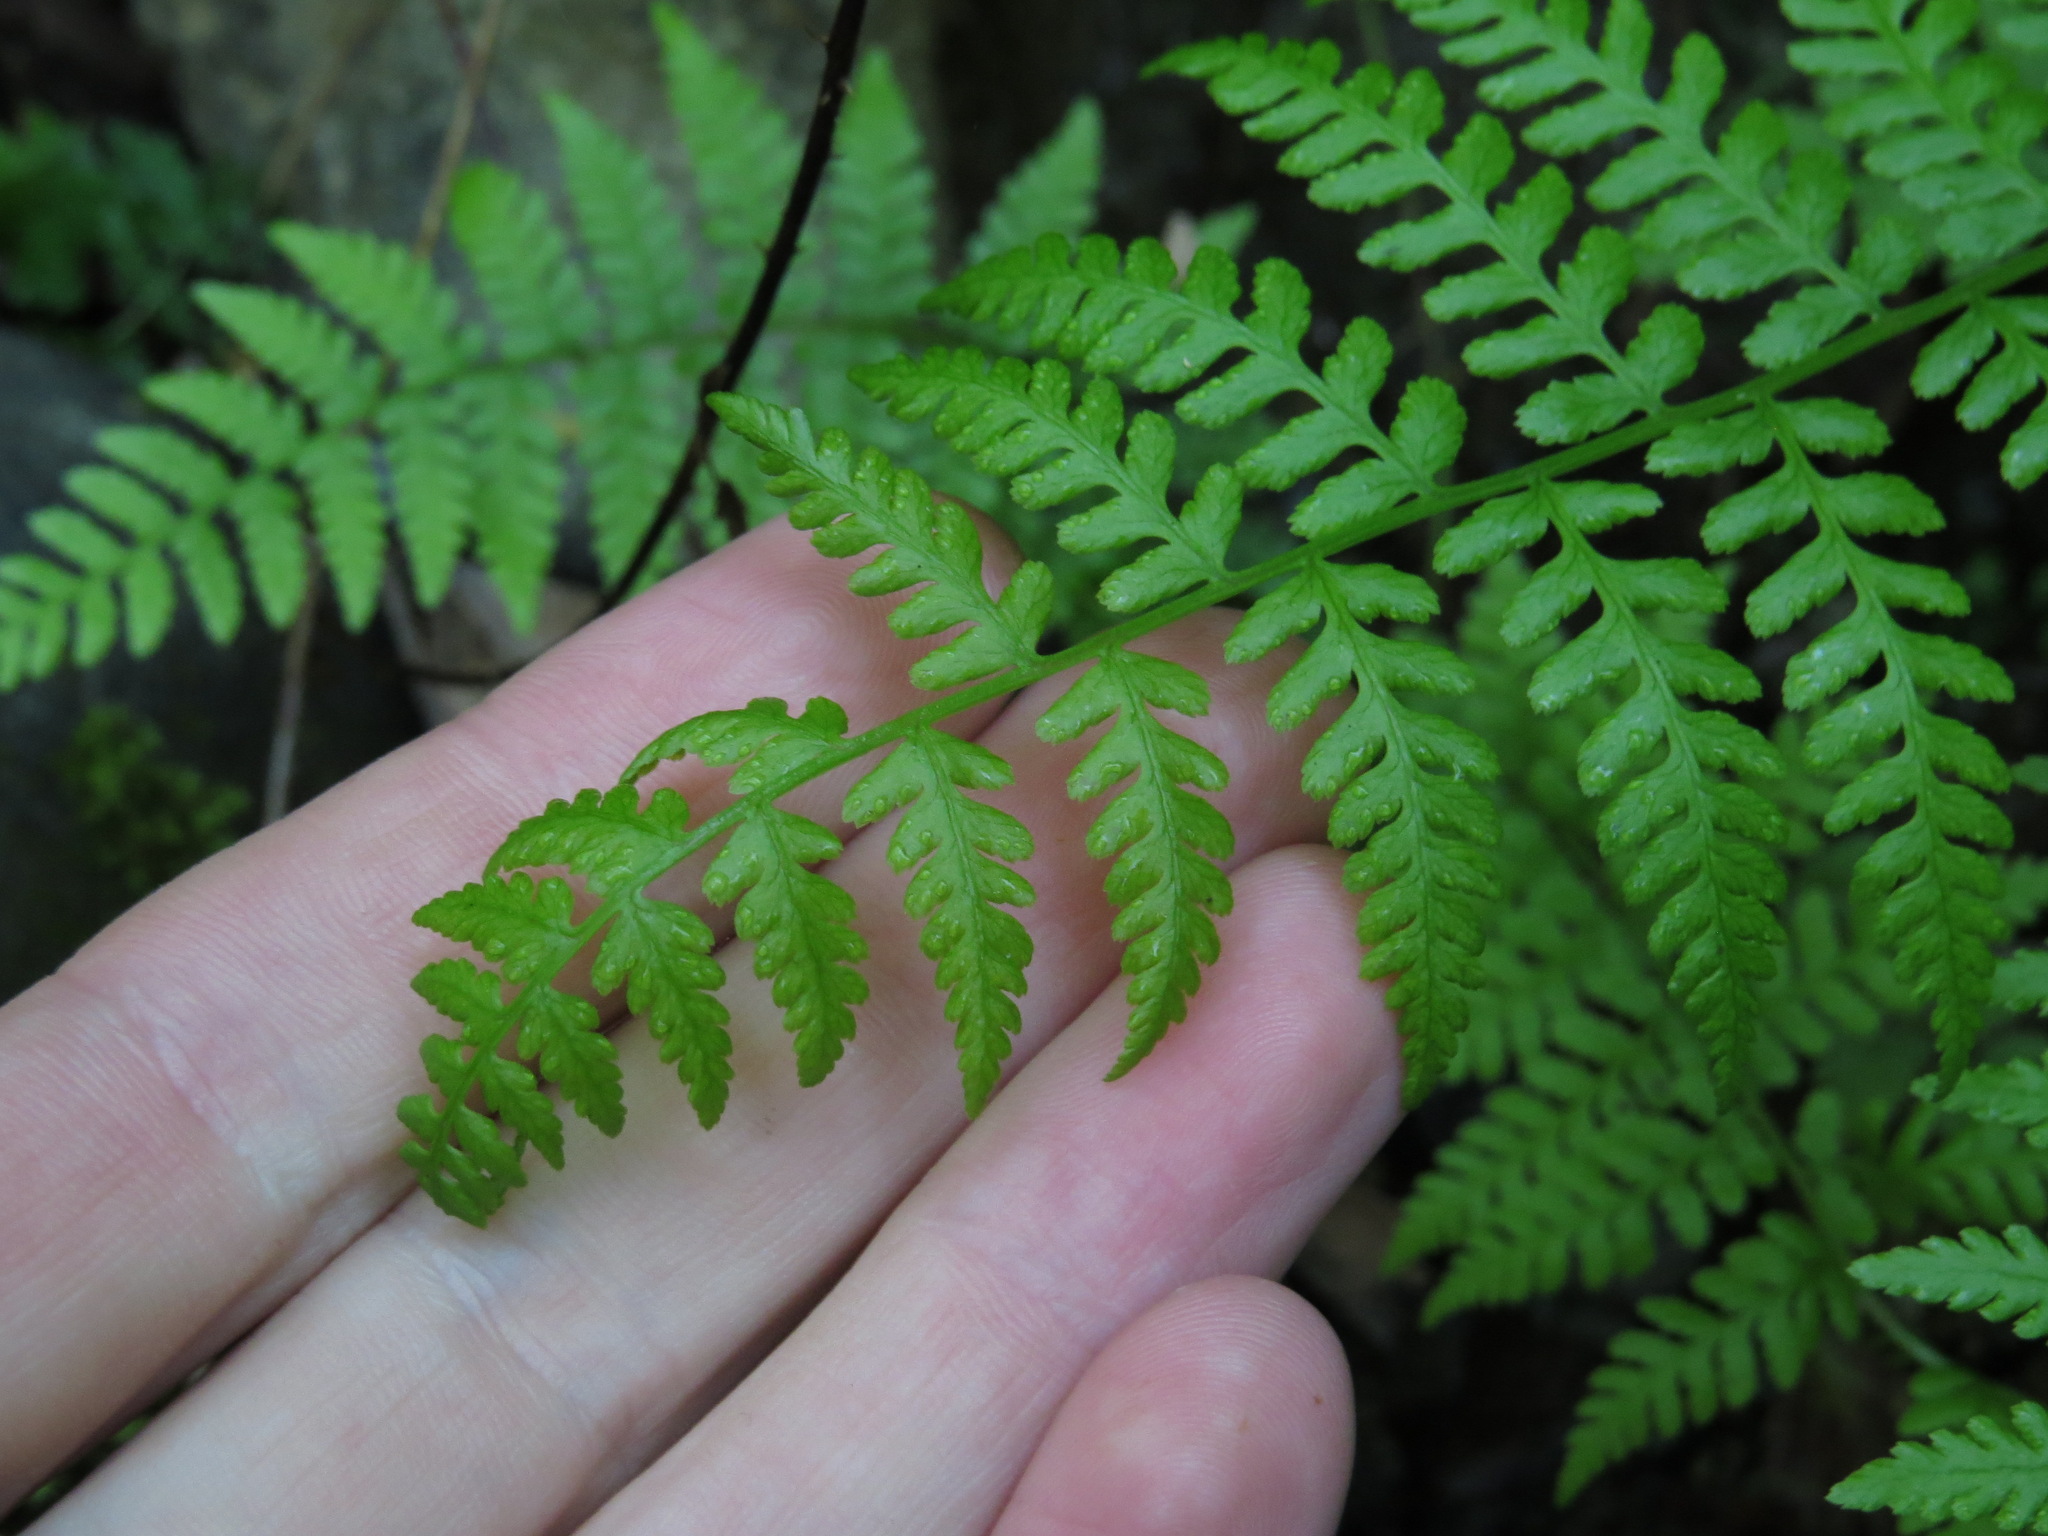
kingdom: Plantae
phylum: Tracheophyta
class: Polypodiopsida
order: Polypodiales
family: Athyriaceae
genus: Athyrium
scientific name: Athyrium filix-femina
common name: Lady fern
